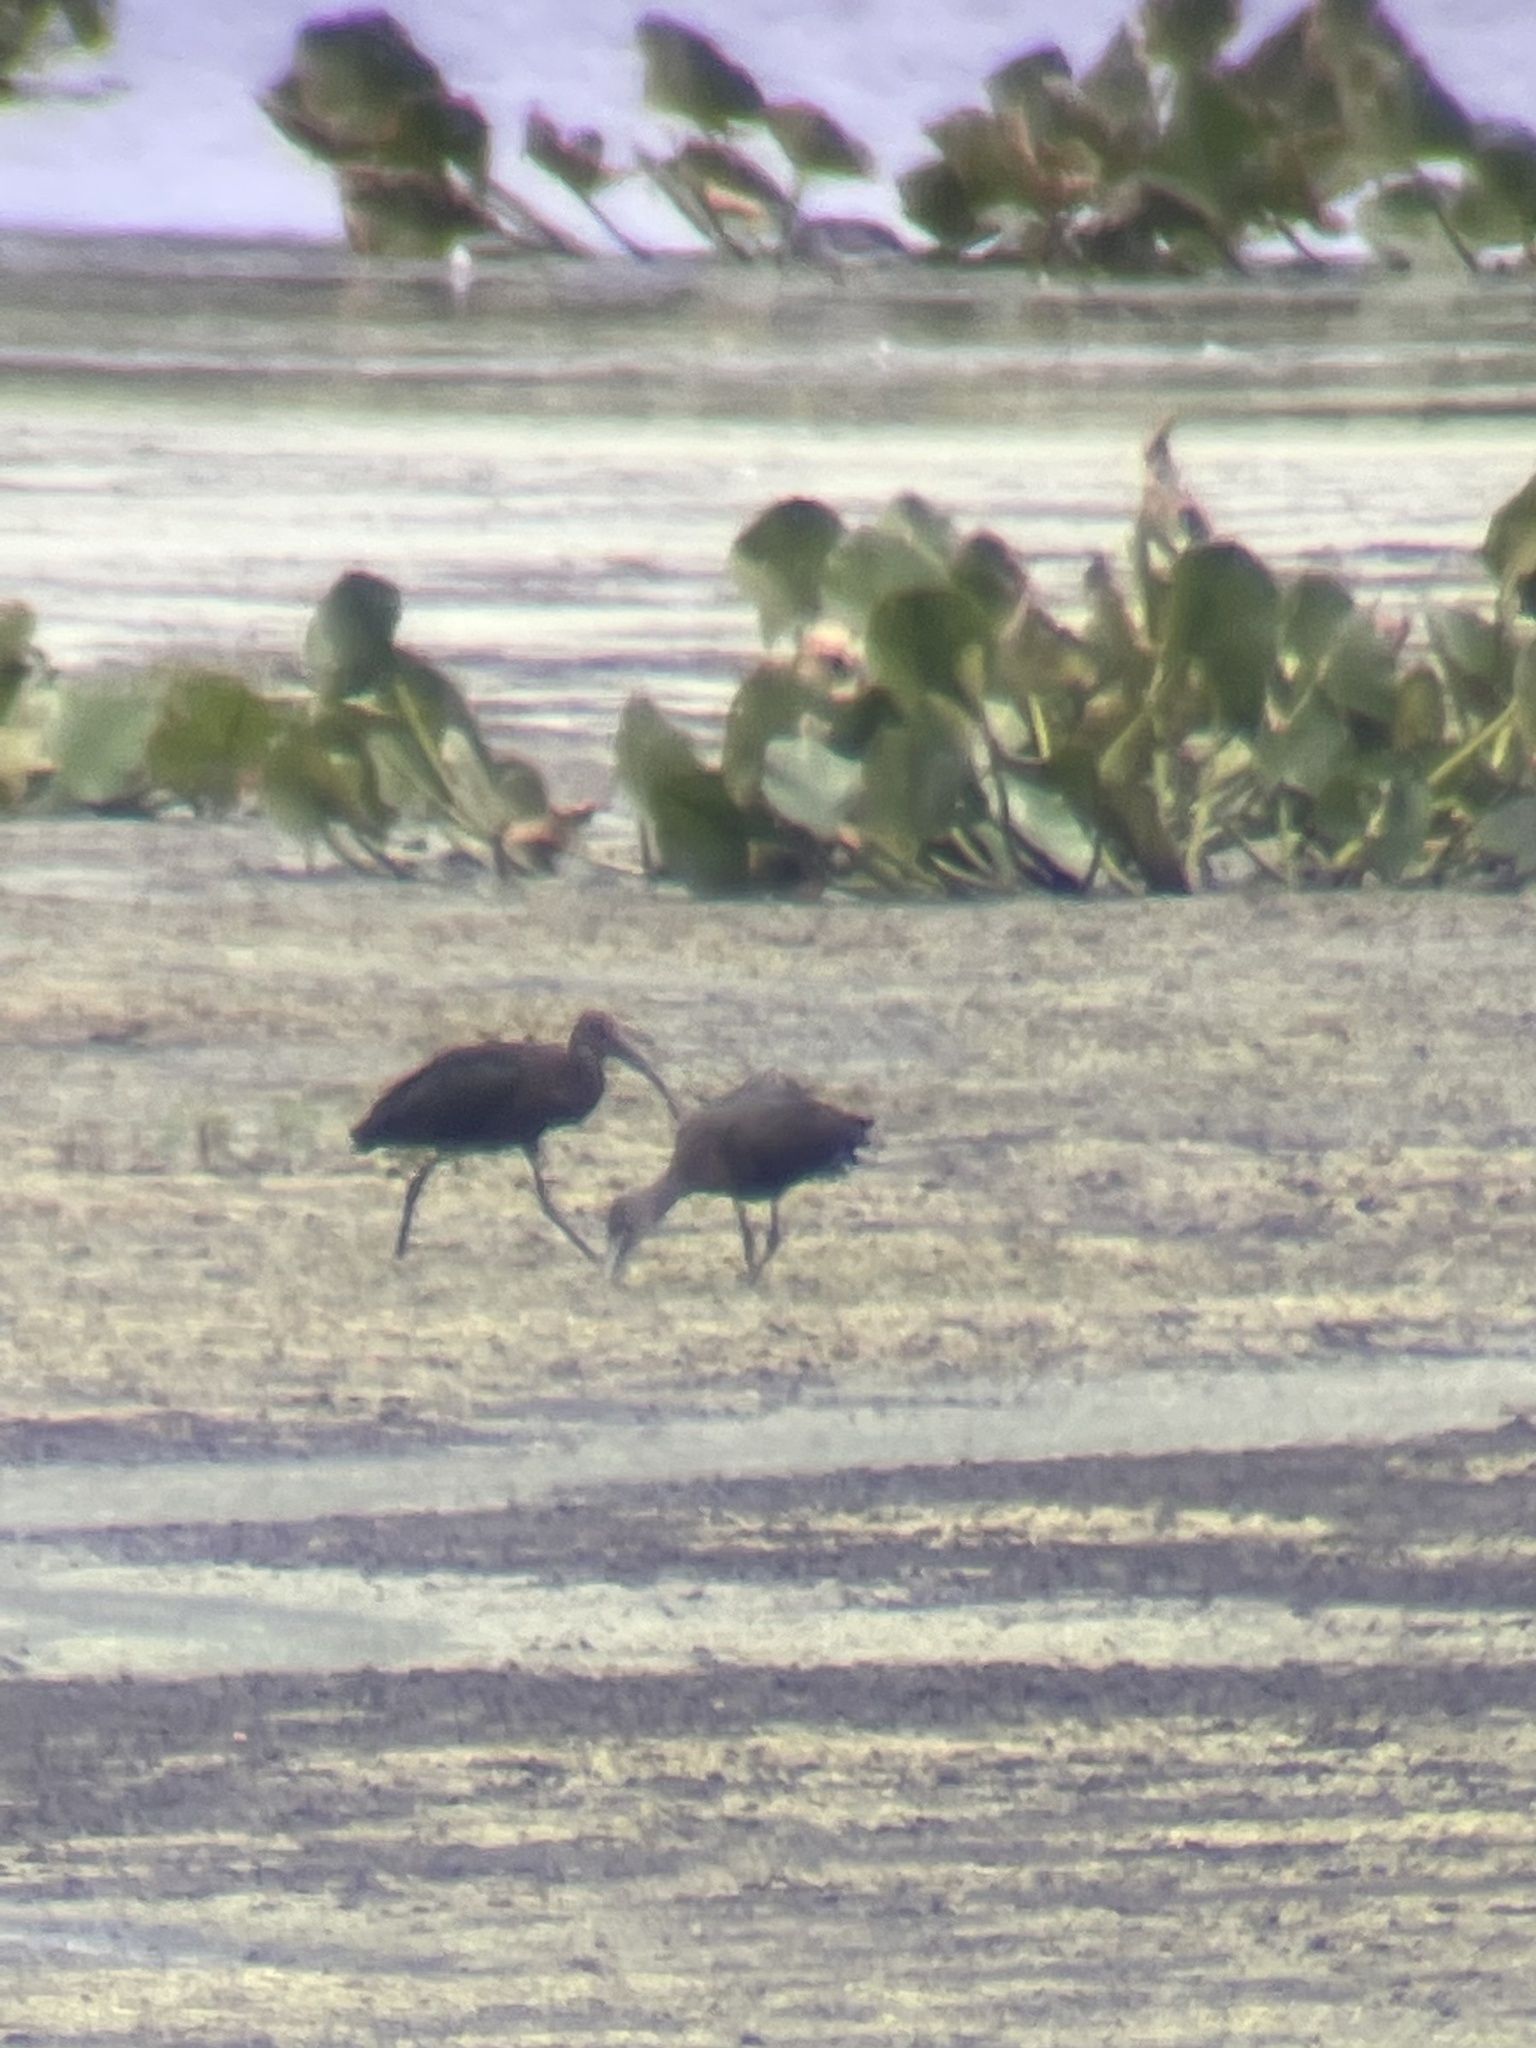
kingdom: Animalia
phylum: Chordata
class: Aves
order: Pelecaniformes
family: Threskiornithidae
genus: Plegadis
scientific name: Plegadis falcinellus
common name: Glossy ibis
